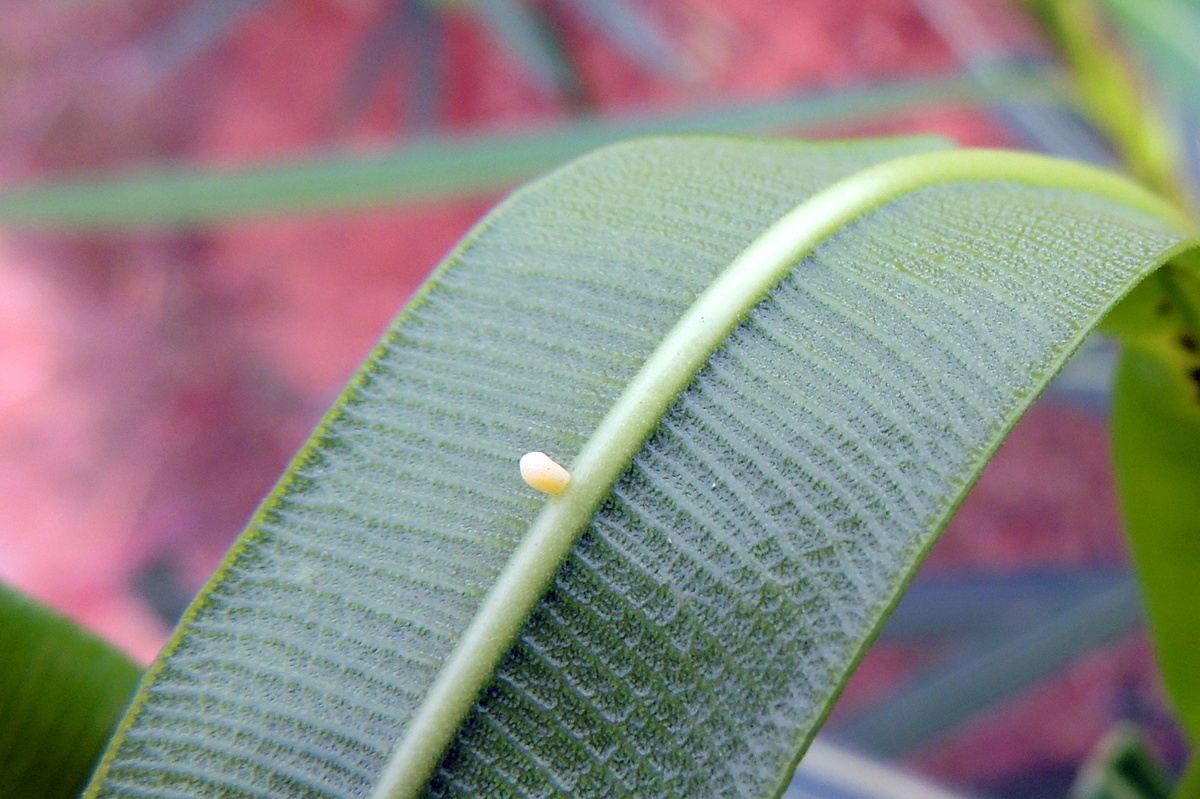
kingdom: Animalia
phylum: Arthropoda
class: Insecta
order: Lepidoptera
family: Nymphalidae
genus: Euploea
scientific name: Euploea core
